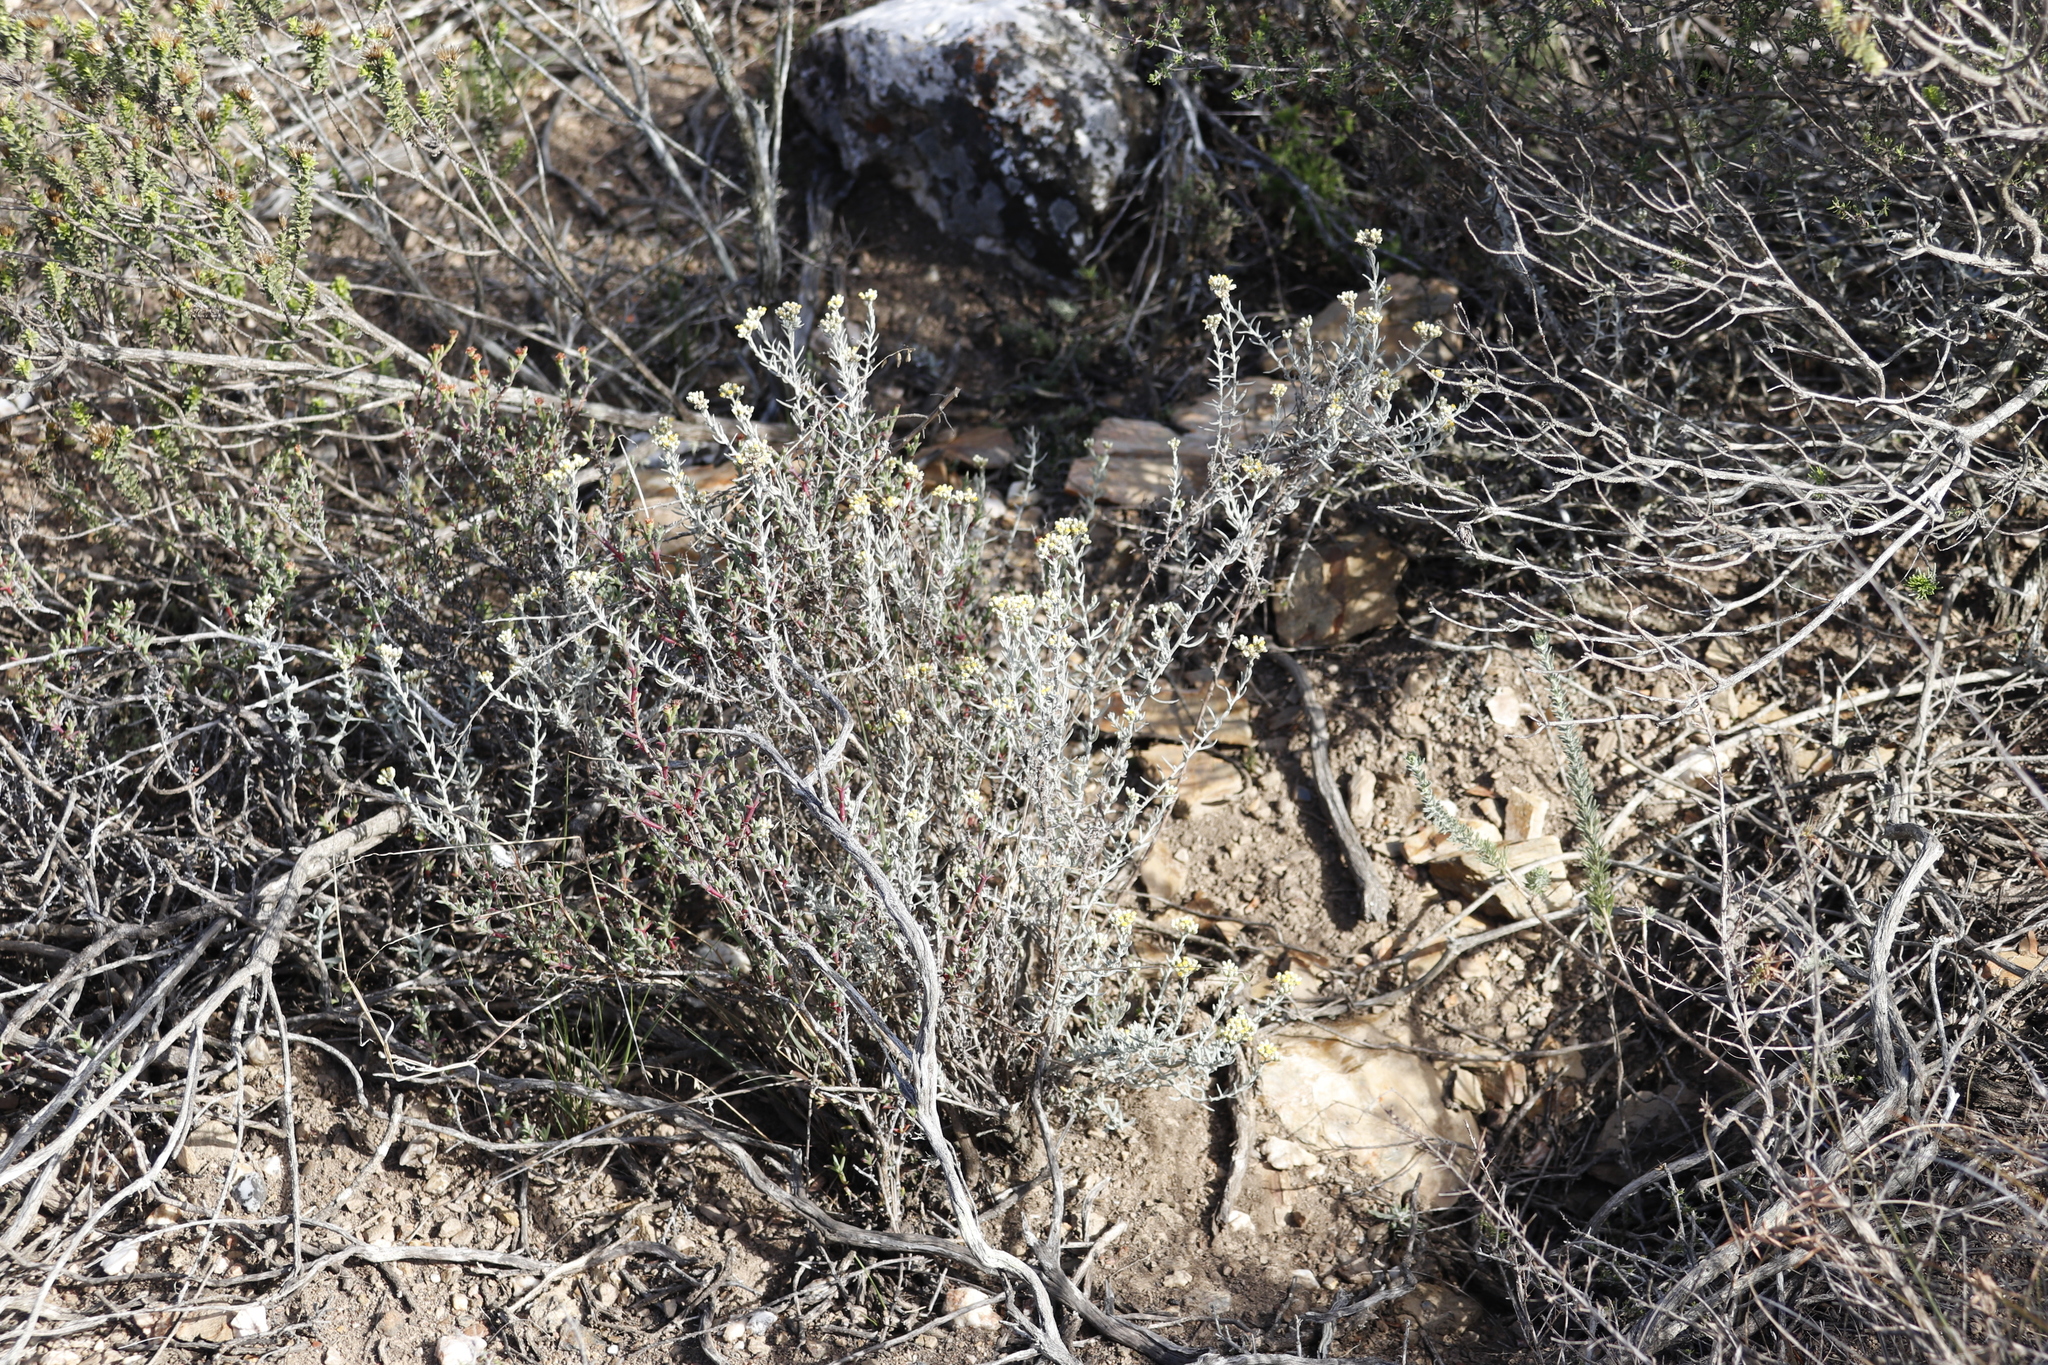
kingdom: Plantae
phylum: Tracheophyta
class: Magnoliopsida
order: Asterales
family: Asteraceae
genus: Helichrysum
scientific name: Helichrysum rosum
